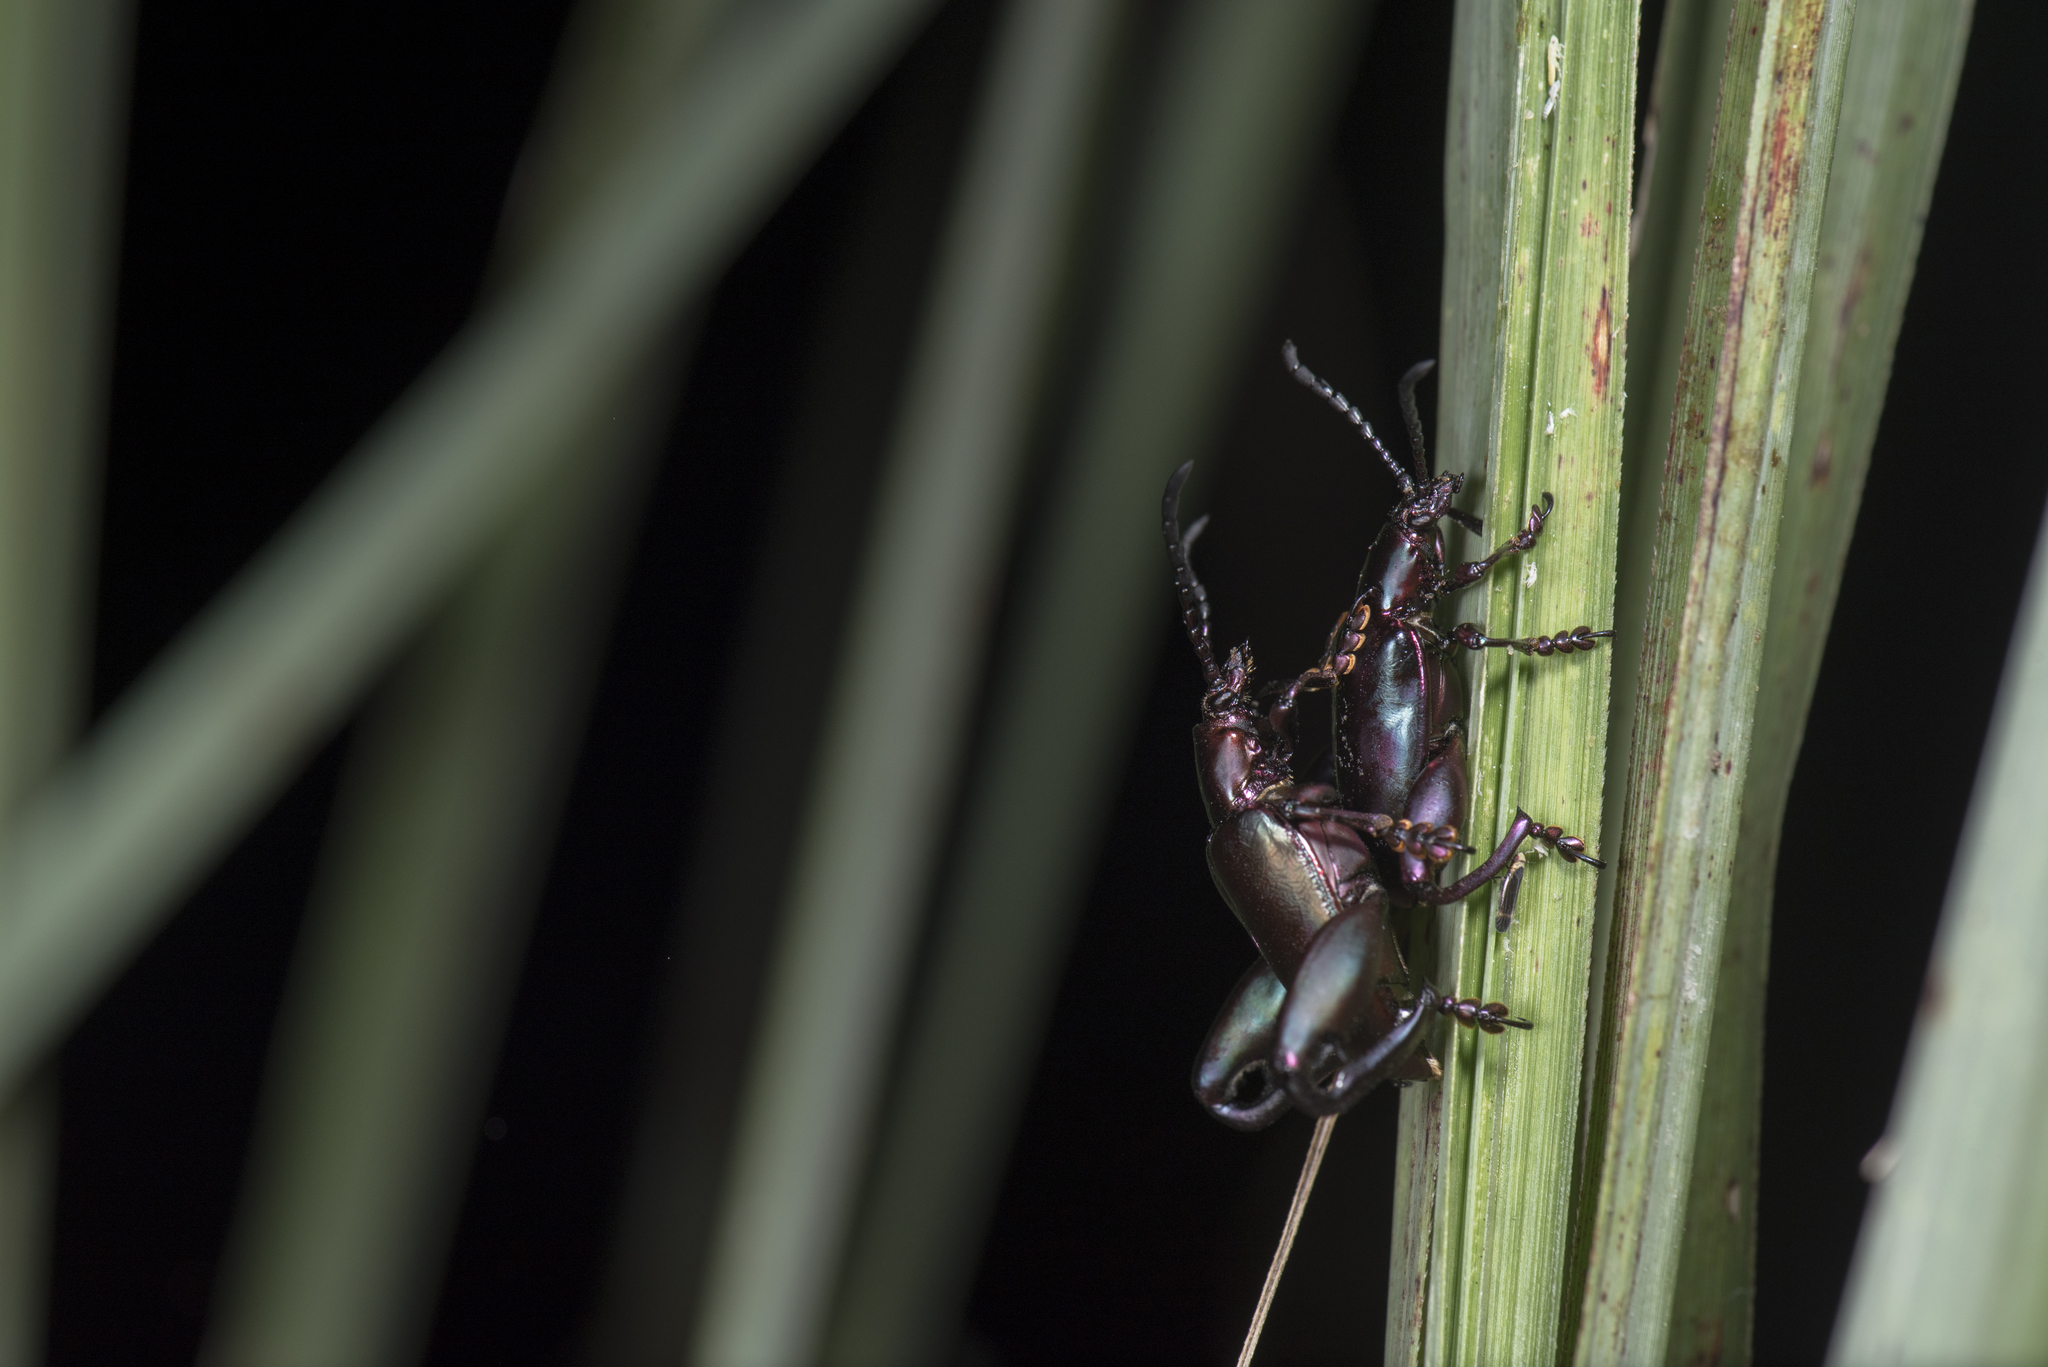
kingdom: Animalia
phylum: Arthropoda
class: Insecta
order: Coleoptera
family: Chrysomelidae
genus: Sagra
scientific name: Sagra femorata
